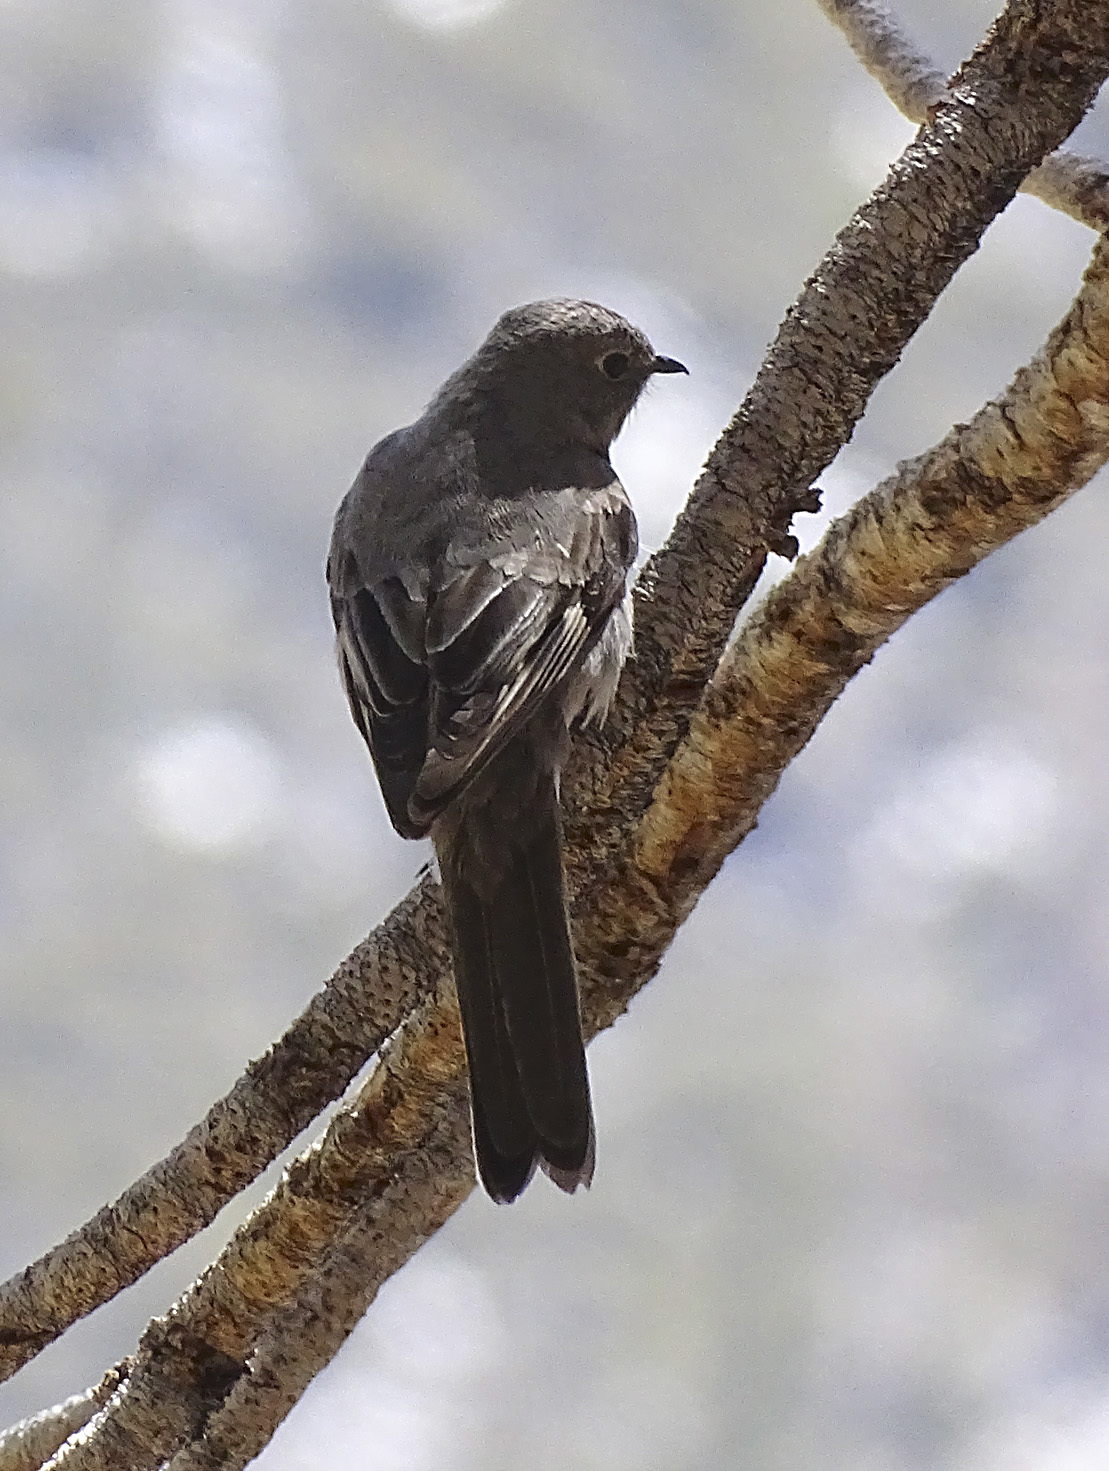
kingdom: Animalia
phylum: Chordata
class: Aves
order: Passeriformes
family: Turdidae
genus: Myadestes
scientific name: Myadestes townsendi
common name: Townsend's solitaire
